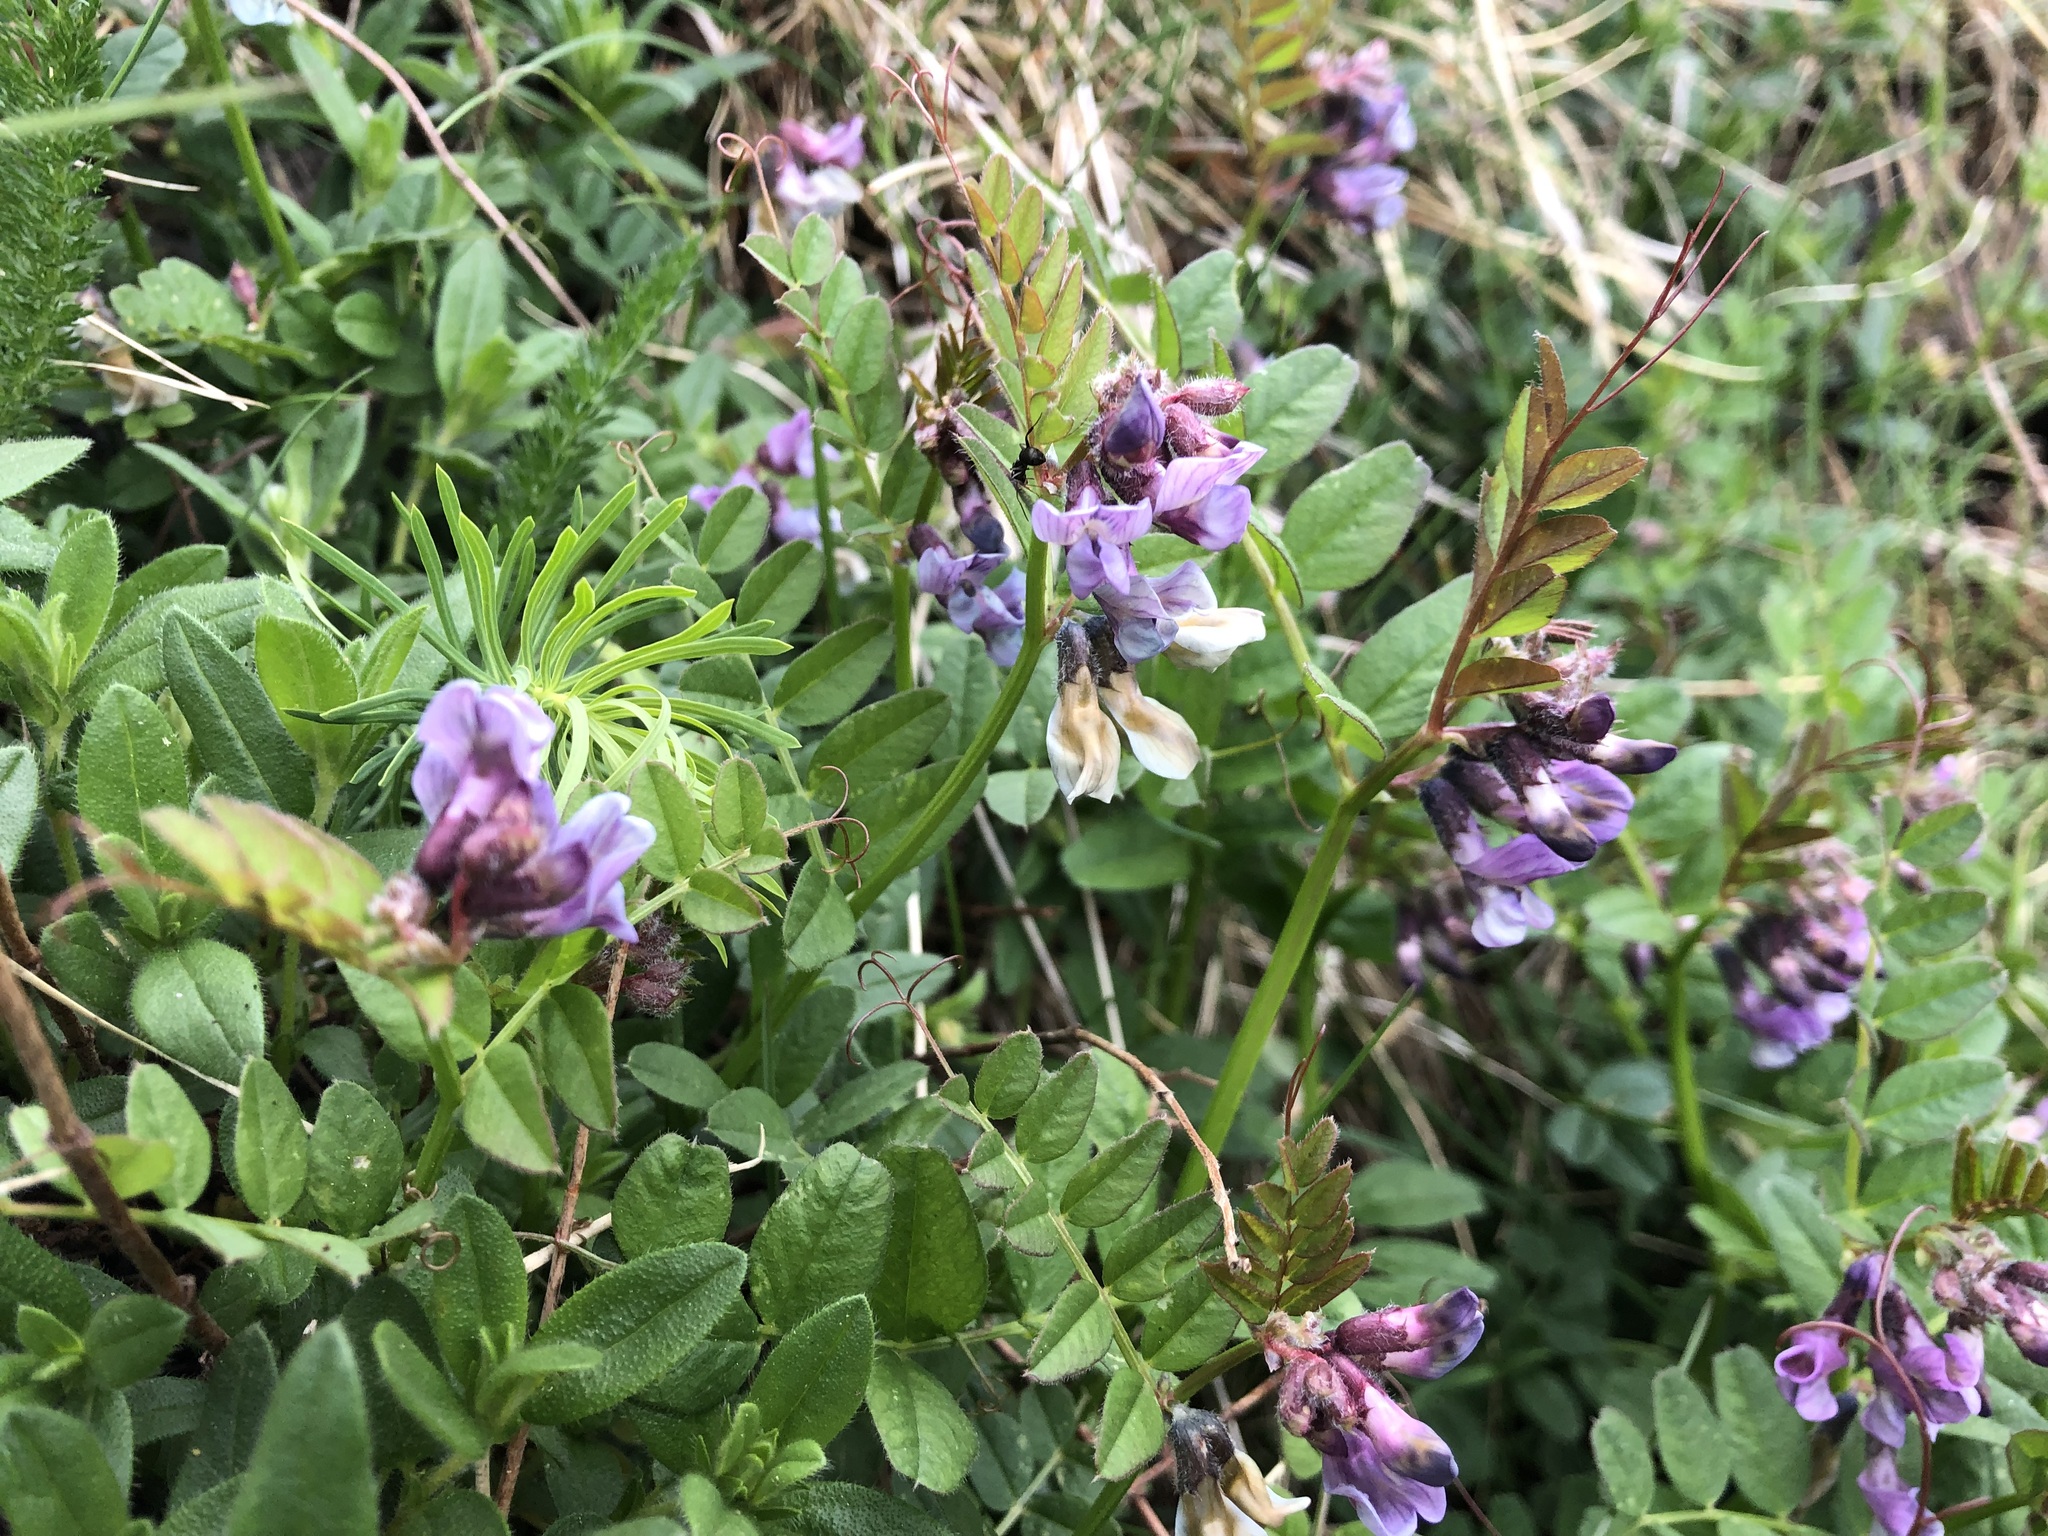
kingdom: Plantae
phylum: Tracheophyta
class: Magnoliopsida
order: Fabales
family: Fabaceae
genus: Vicia
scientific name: Vicia sepium
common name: Bush vetch
